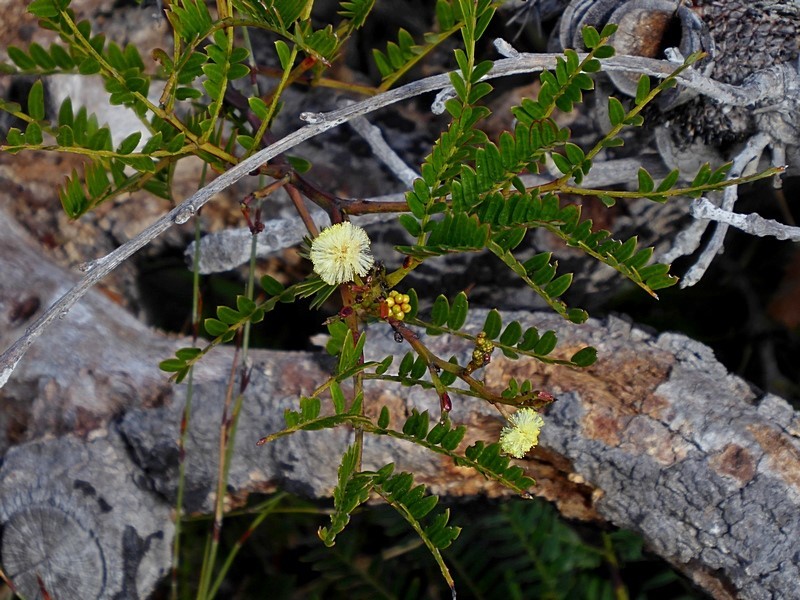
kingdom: Plantae
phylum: Tracheophyta
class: Magnoliopsida
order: Fabales
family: Fabaceae
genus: Acacia
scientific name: Acacia terminalis
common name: Cedar wattle
